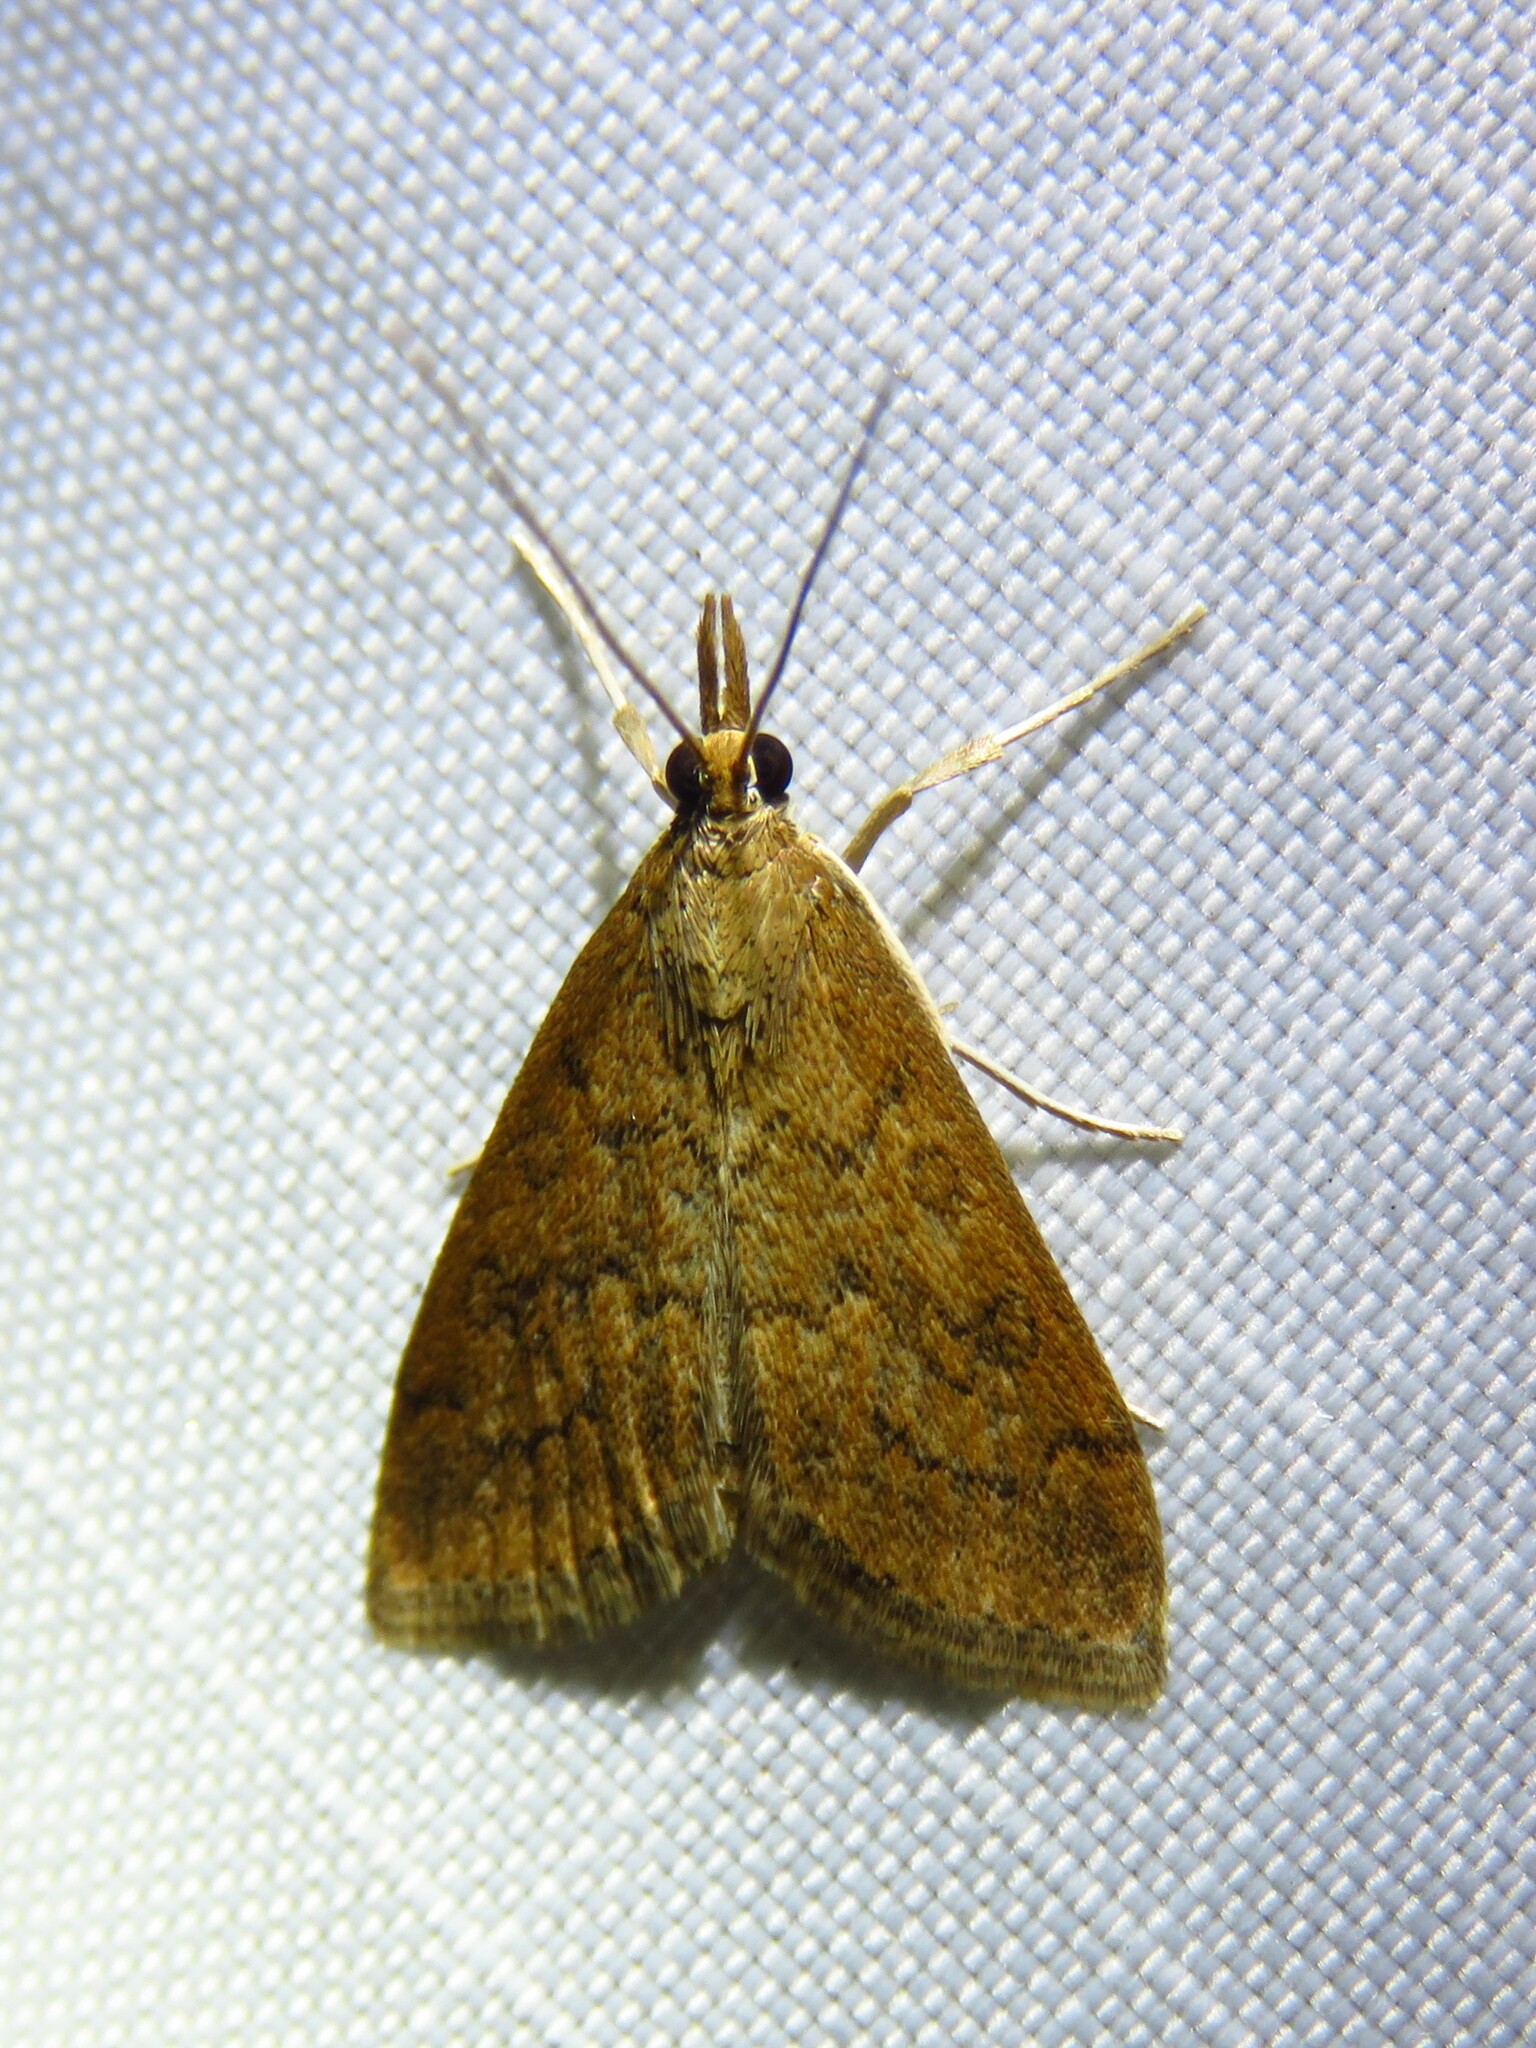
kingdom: Animalia
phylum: Arthropoda
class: Insecta
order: Lepidoptera
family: Crambidae
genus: Udea
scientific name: Udea rubigalis
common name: Celery leaftier moth
